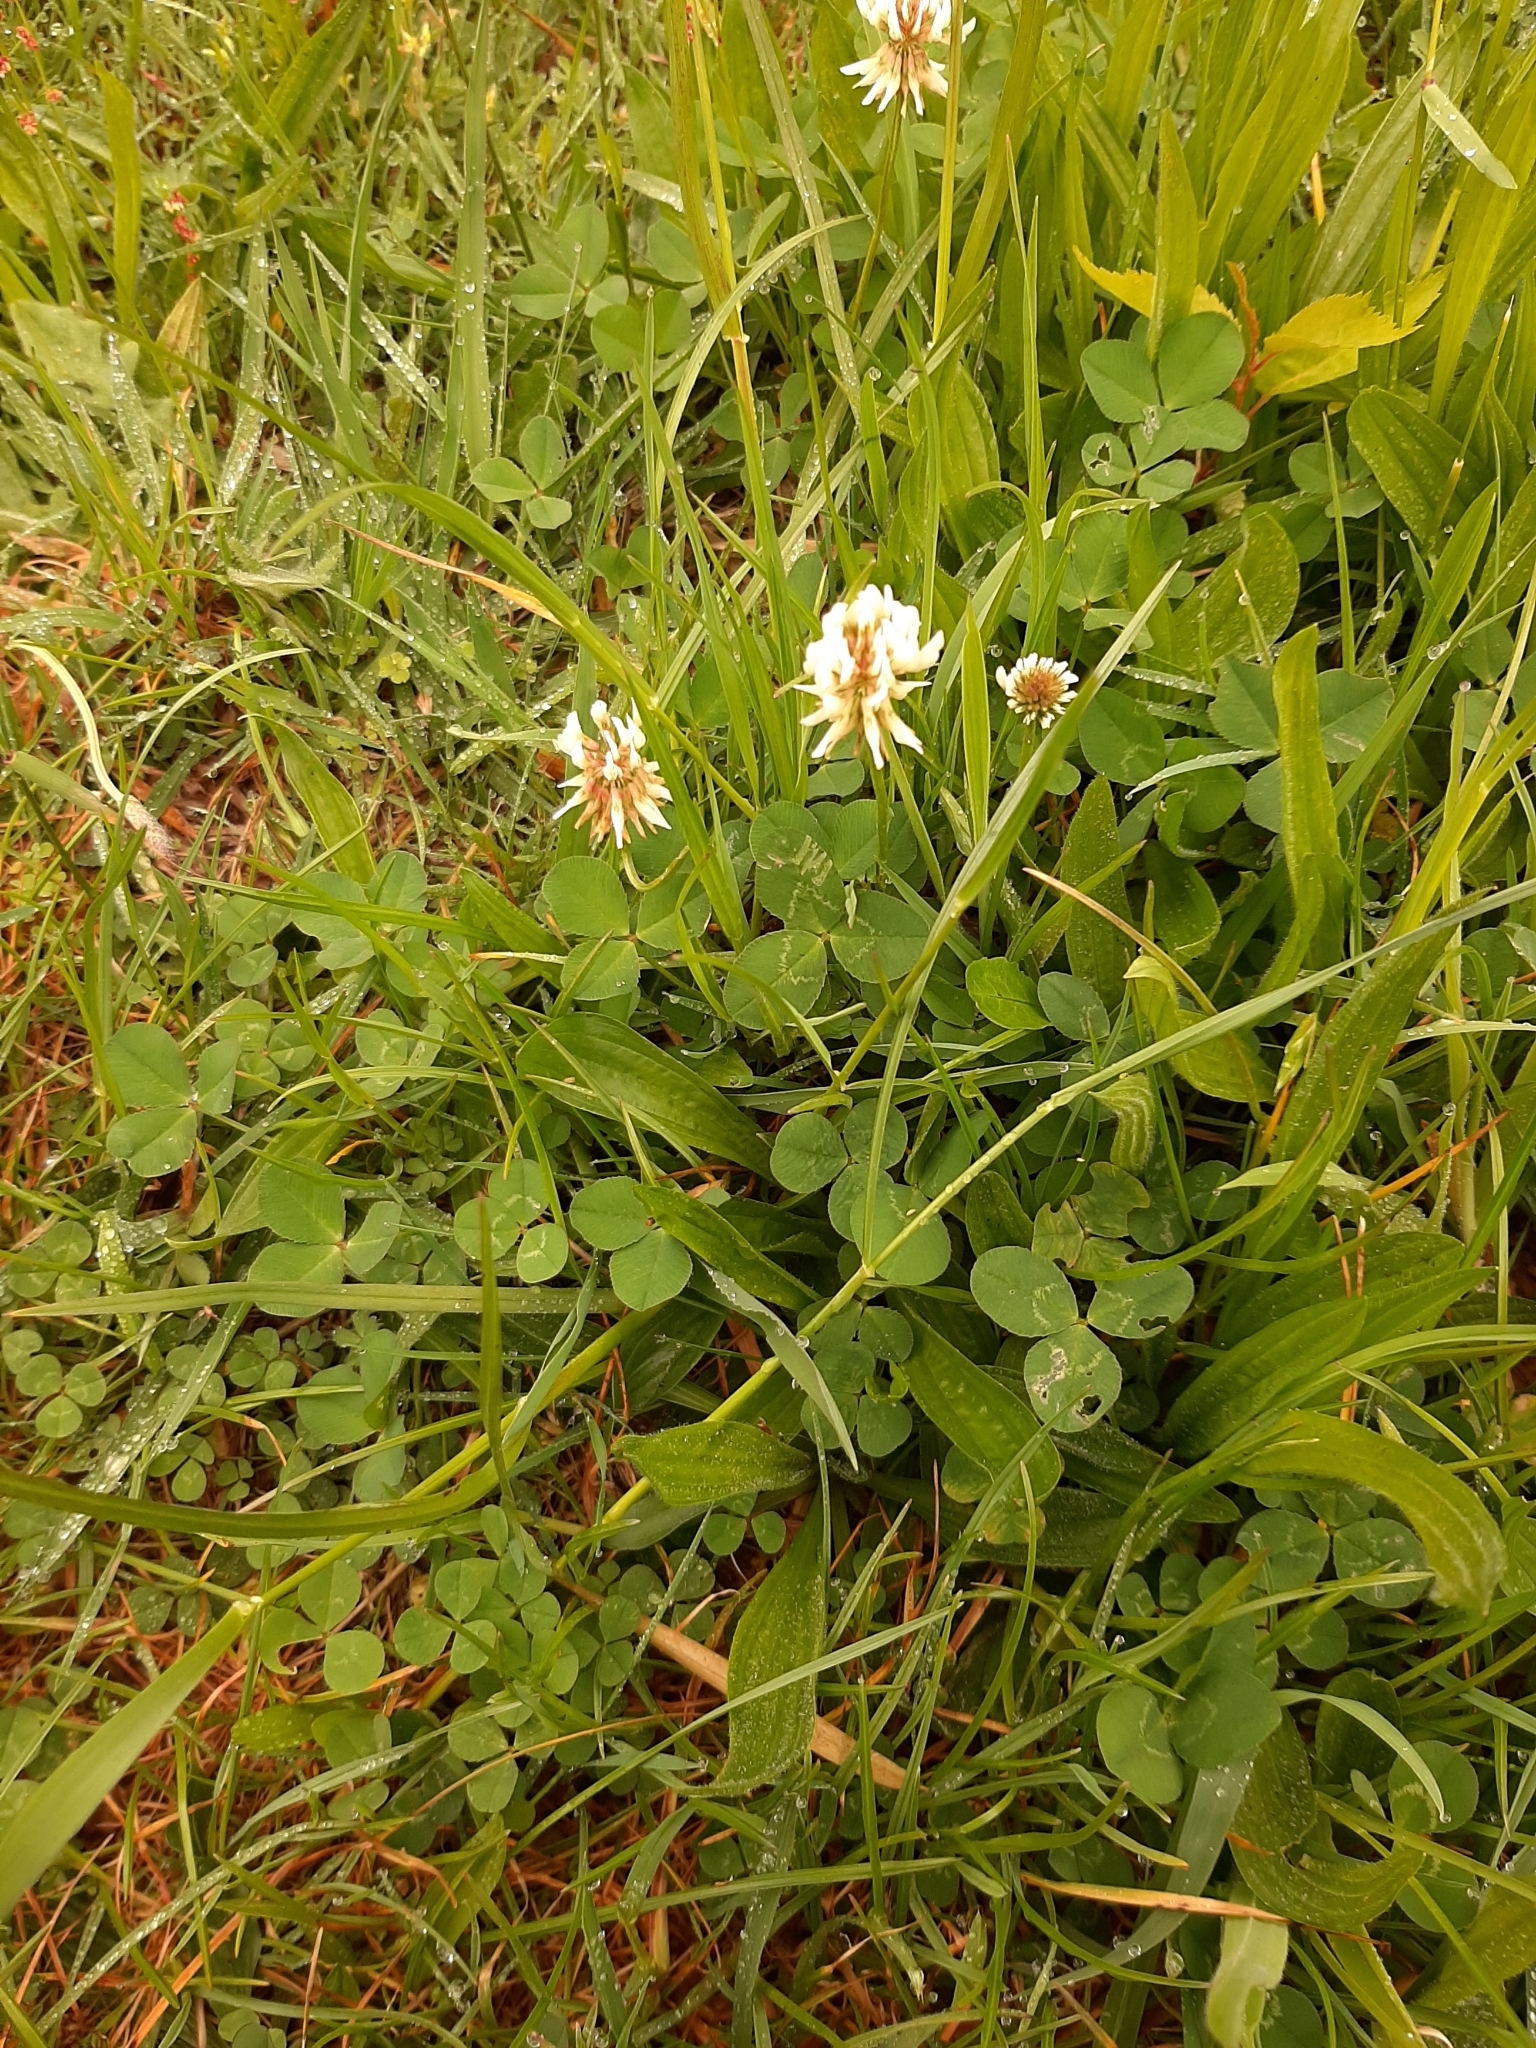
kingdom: Plantae
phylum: Tracheophyta
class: Magnoliopsida
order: Fabales
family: Fabaceae
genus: Trifolium
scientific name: Trifolium repens
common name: White clover
